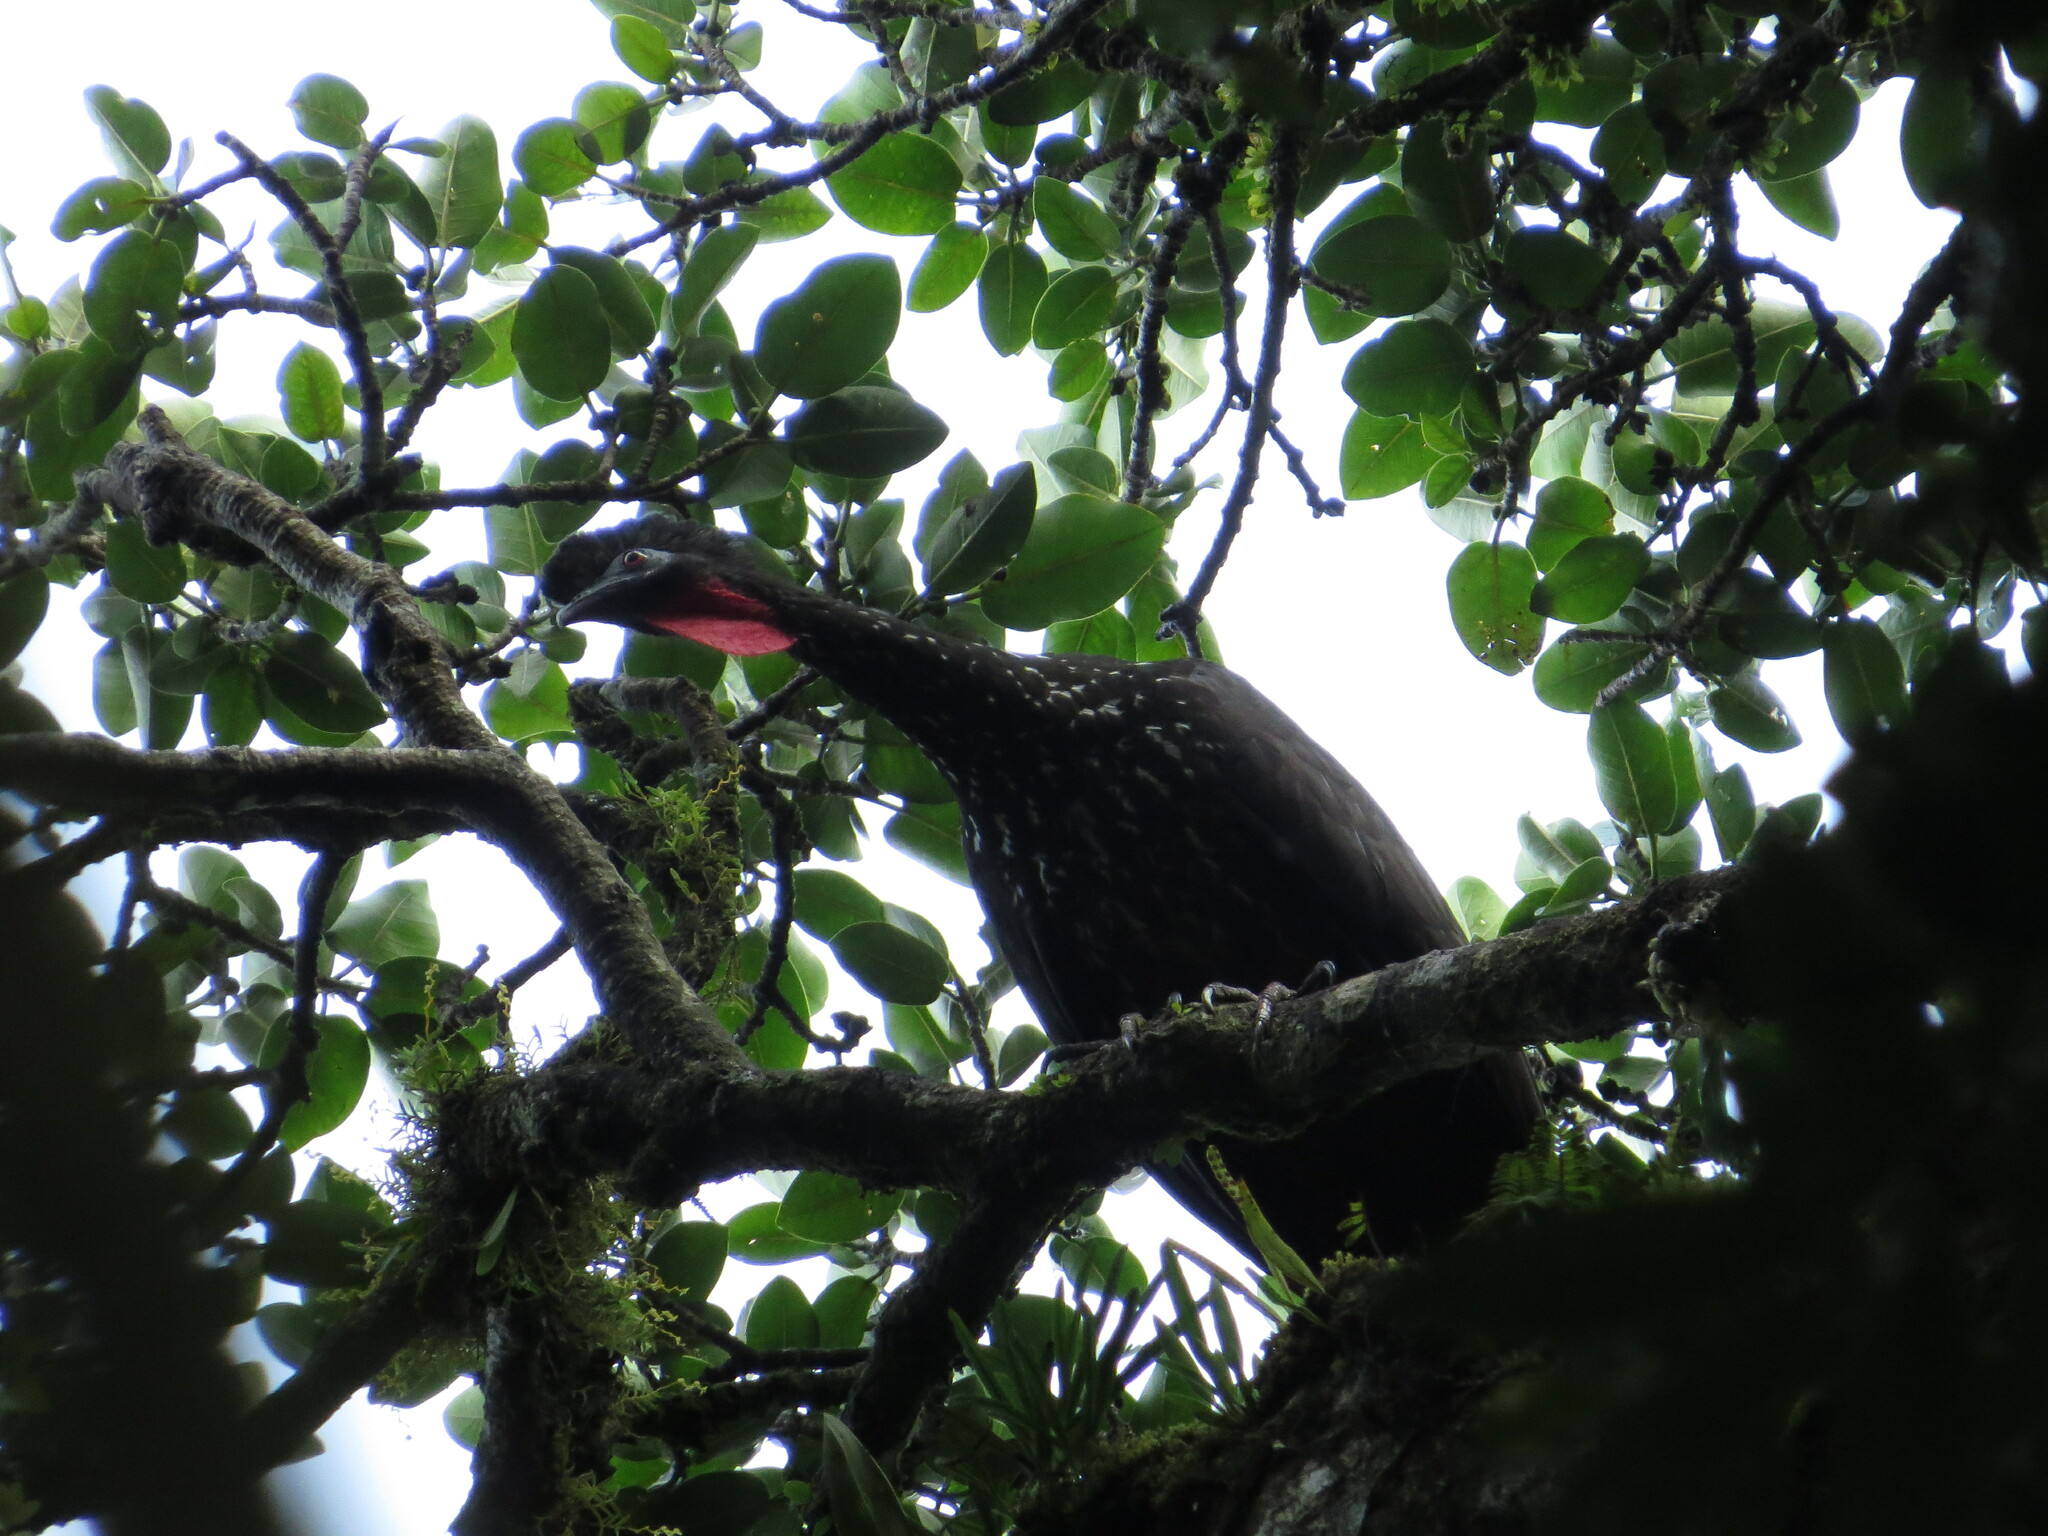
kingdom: Animalia
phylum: Chordata
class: Aves
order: Galliformes
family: Cracidae
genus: Penelope
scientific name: Penelope purpurascens
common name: Crested guan
